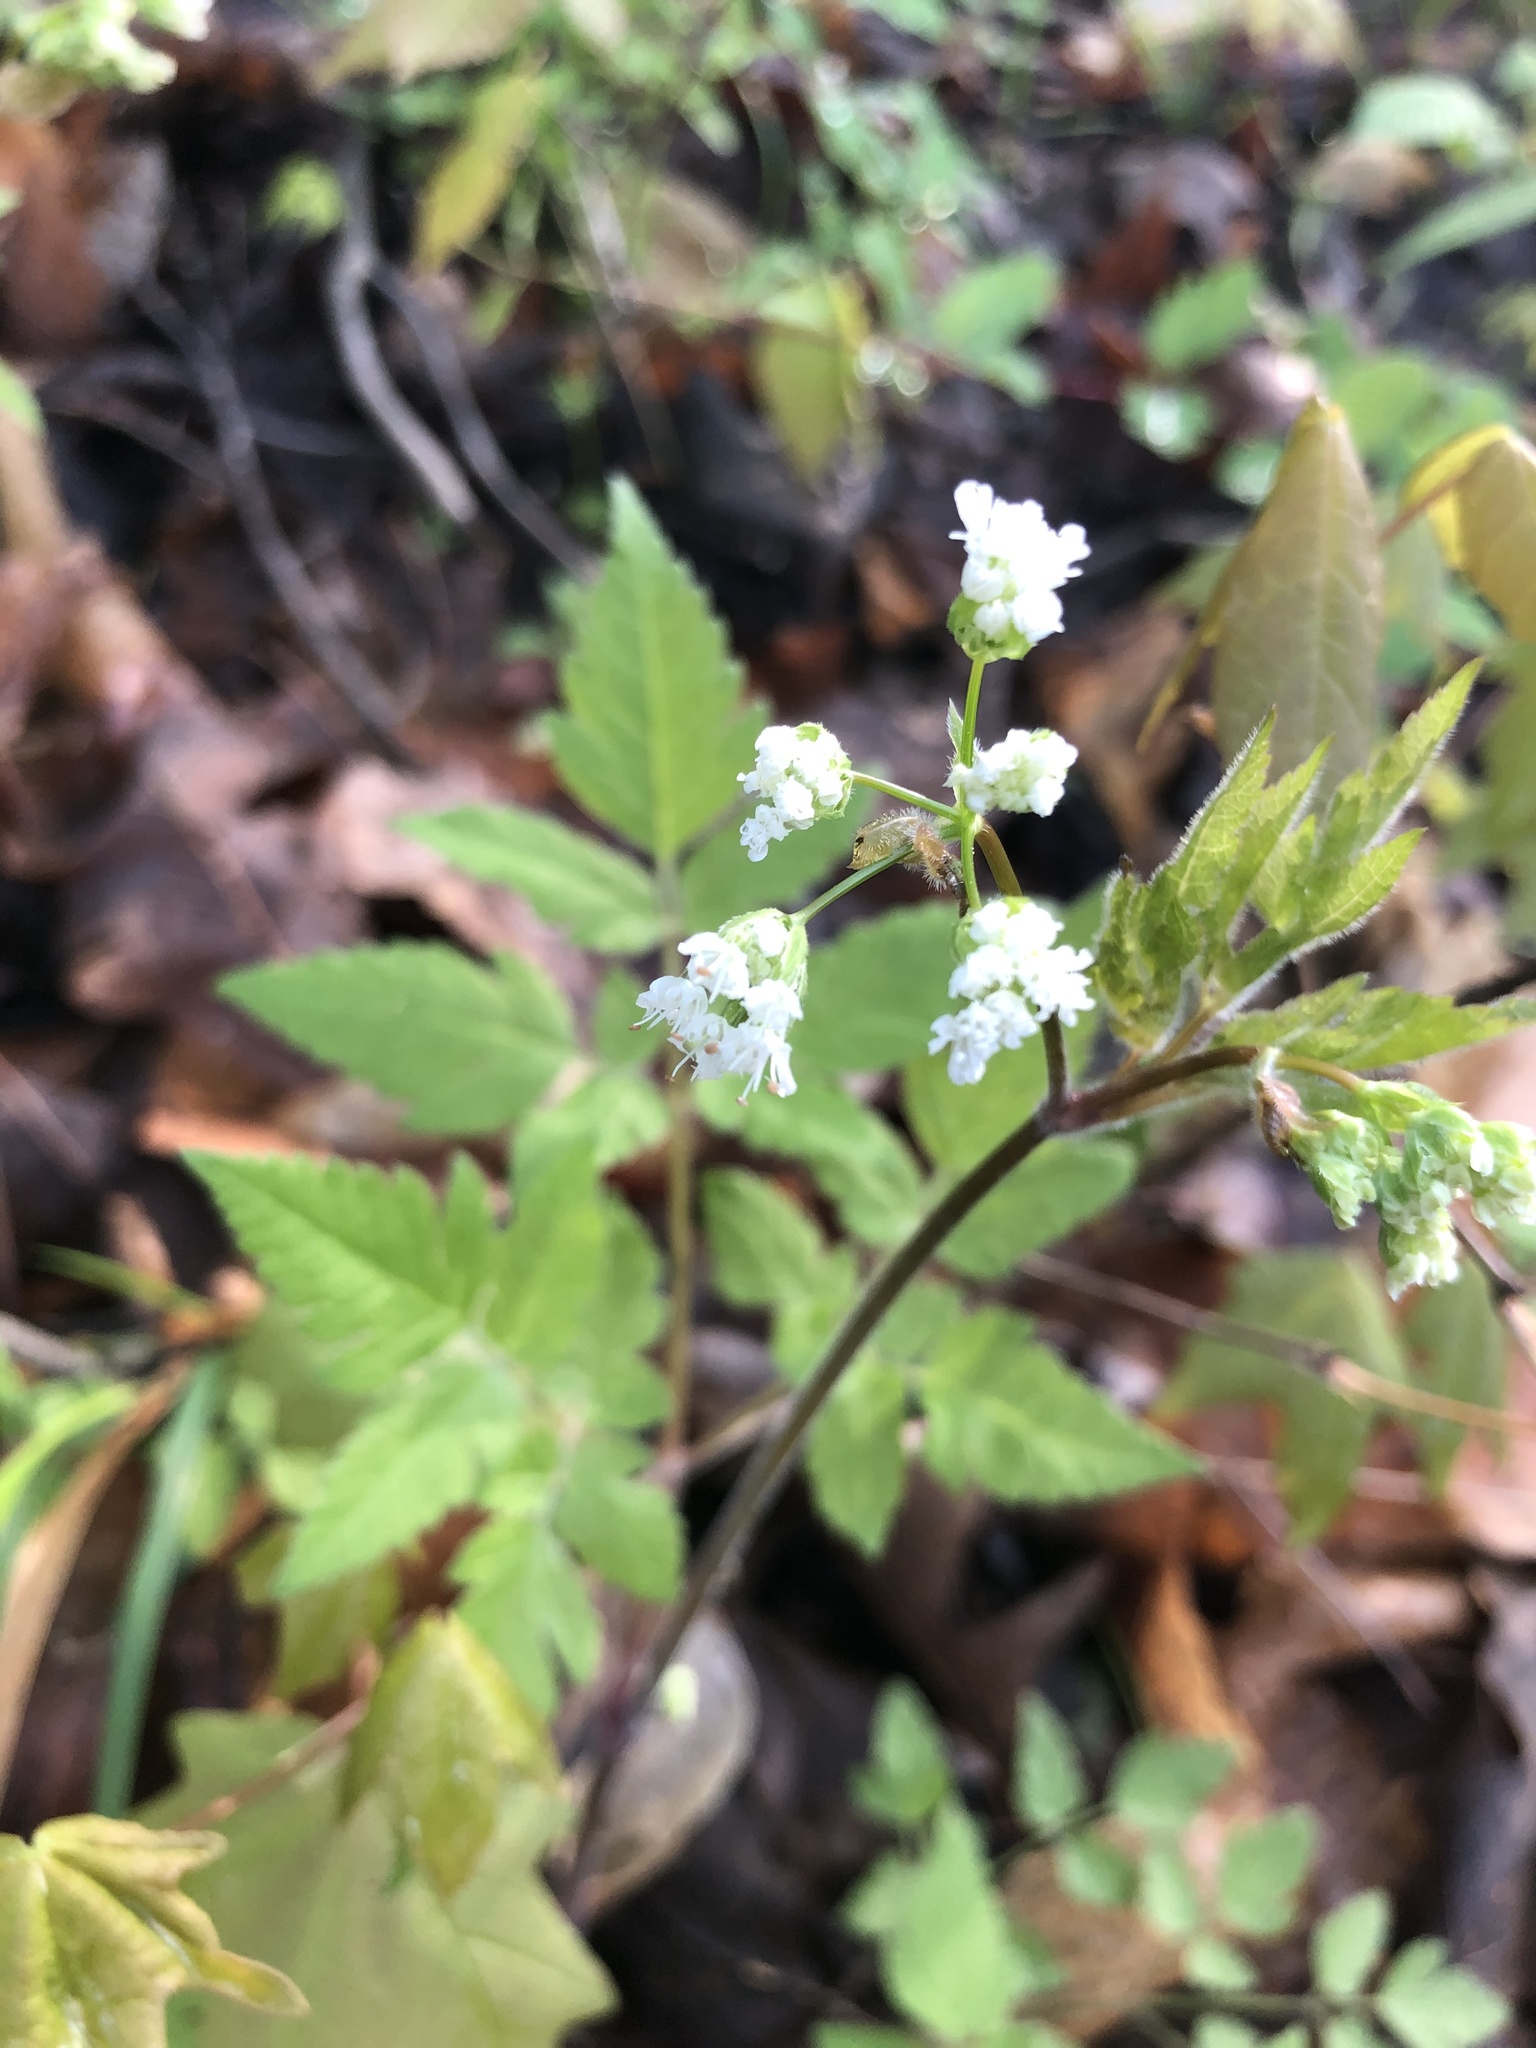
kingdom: Plantae
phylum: Tracheophyta
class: Magnoliopsida
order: Apiales
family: Apiaceae
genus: Osmorhiza
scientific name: Osmorhiza longistylis
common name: Smooth sweet cicely
